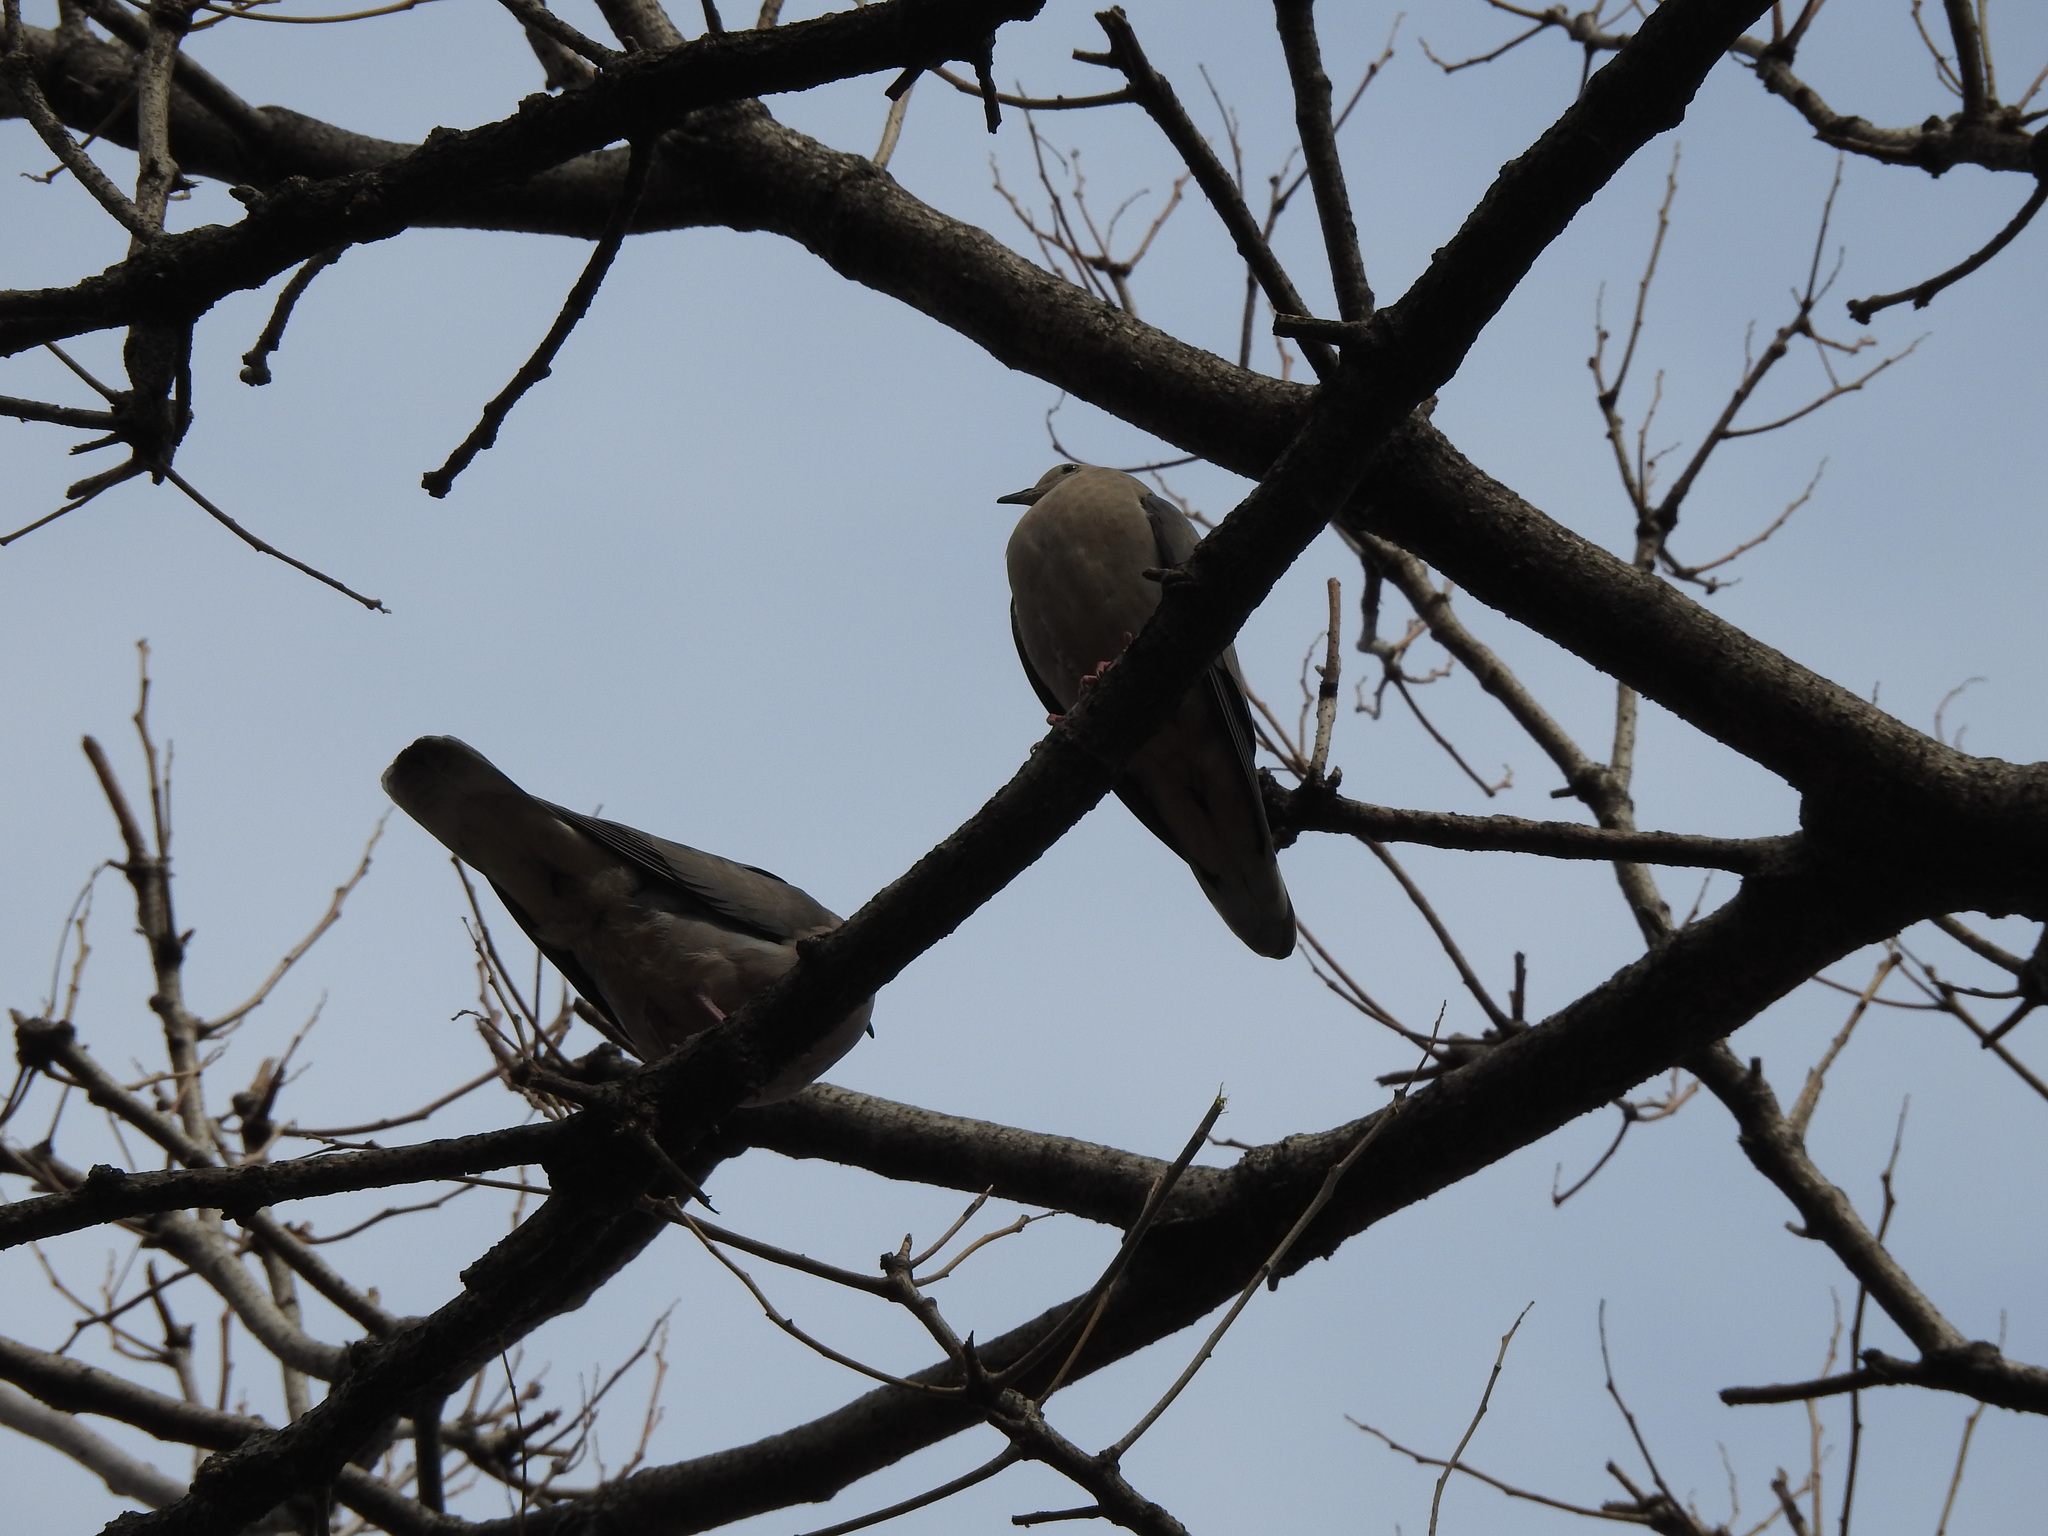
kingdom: Animalia
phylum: Chordata
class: Aves
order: Columbiformes
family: Columbidae
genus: Zenaida
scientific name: Zenaida auriculata
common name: Eared dove
